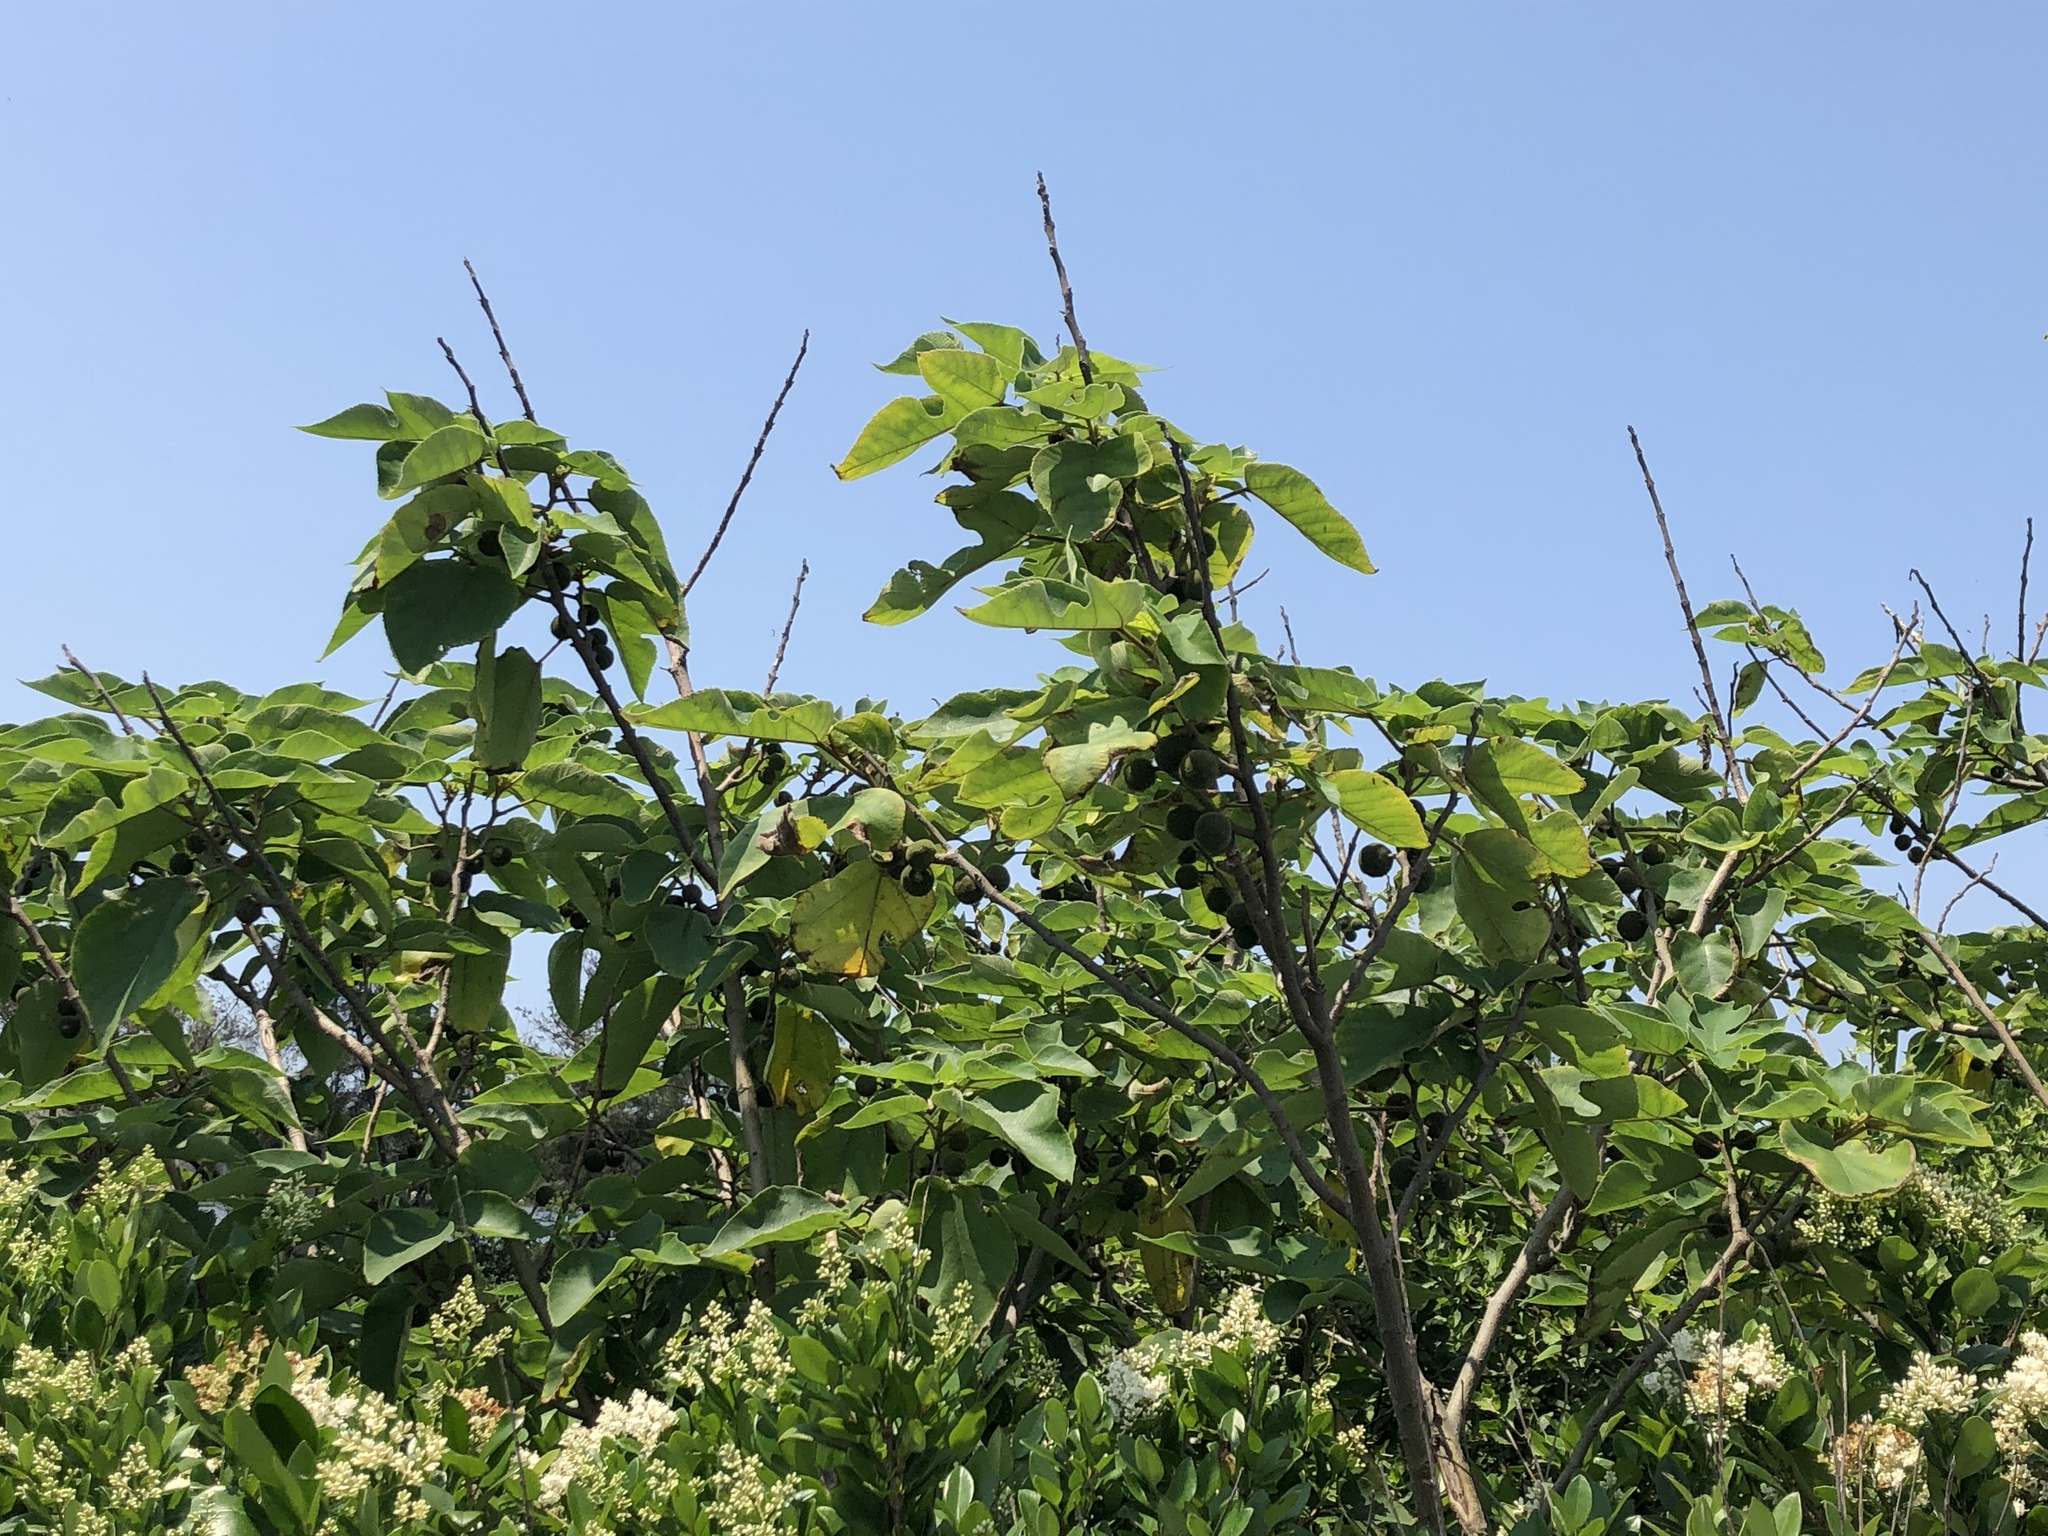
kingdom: Plantae
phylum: Tracheophyta
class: Magnoliopsida
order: Rosales
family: Moraceae
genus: Broussonetia
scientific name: Broussonetia papyrifera
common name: Paper mulberry
